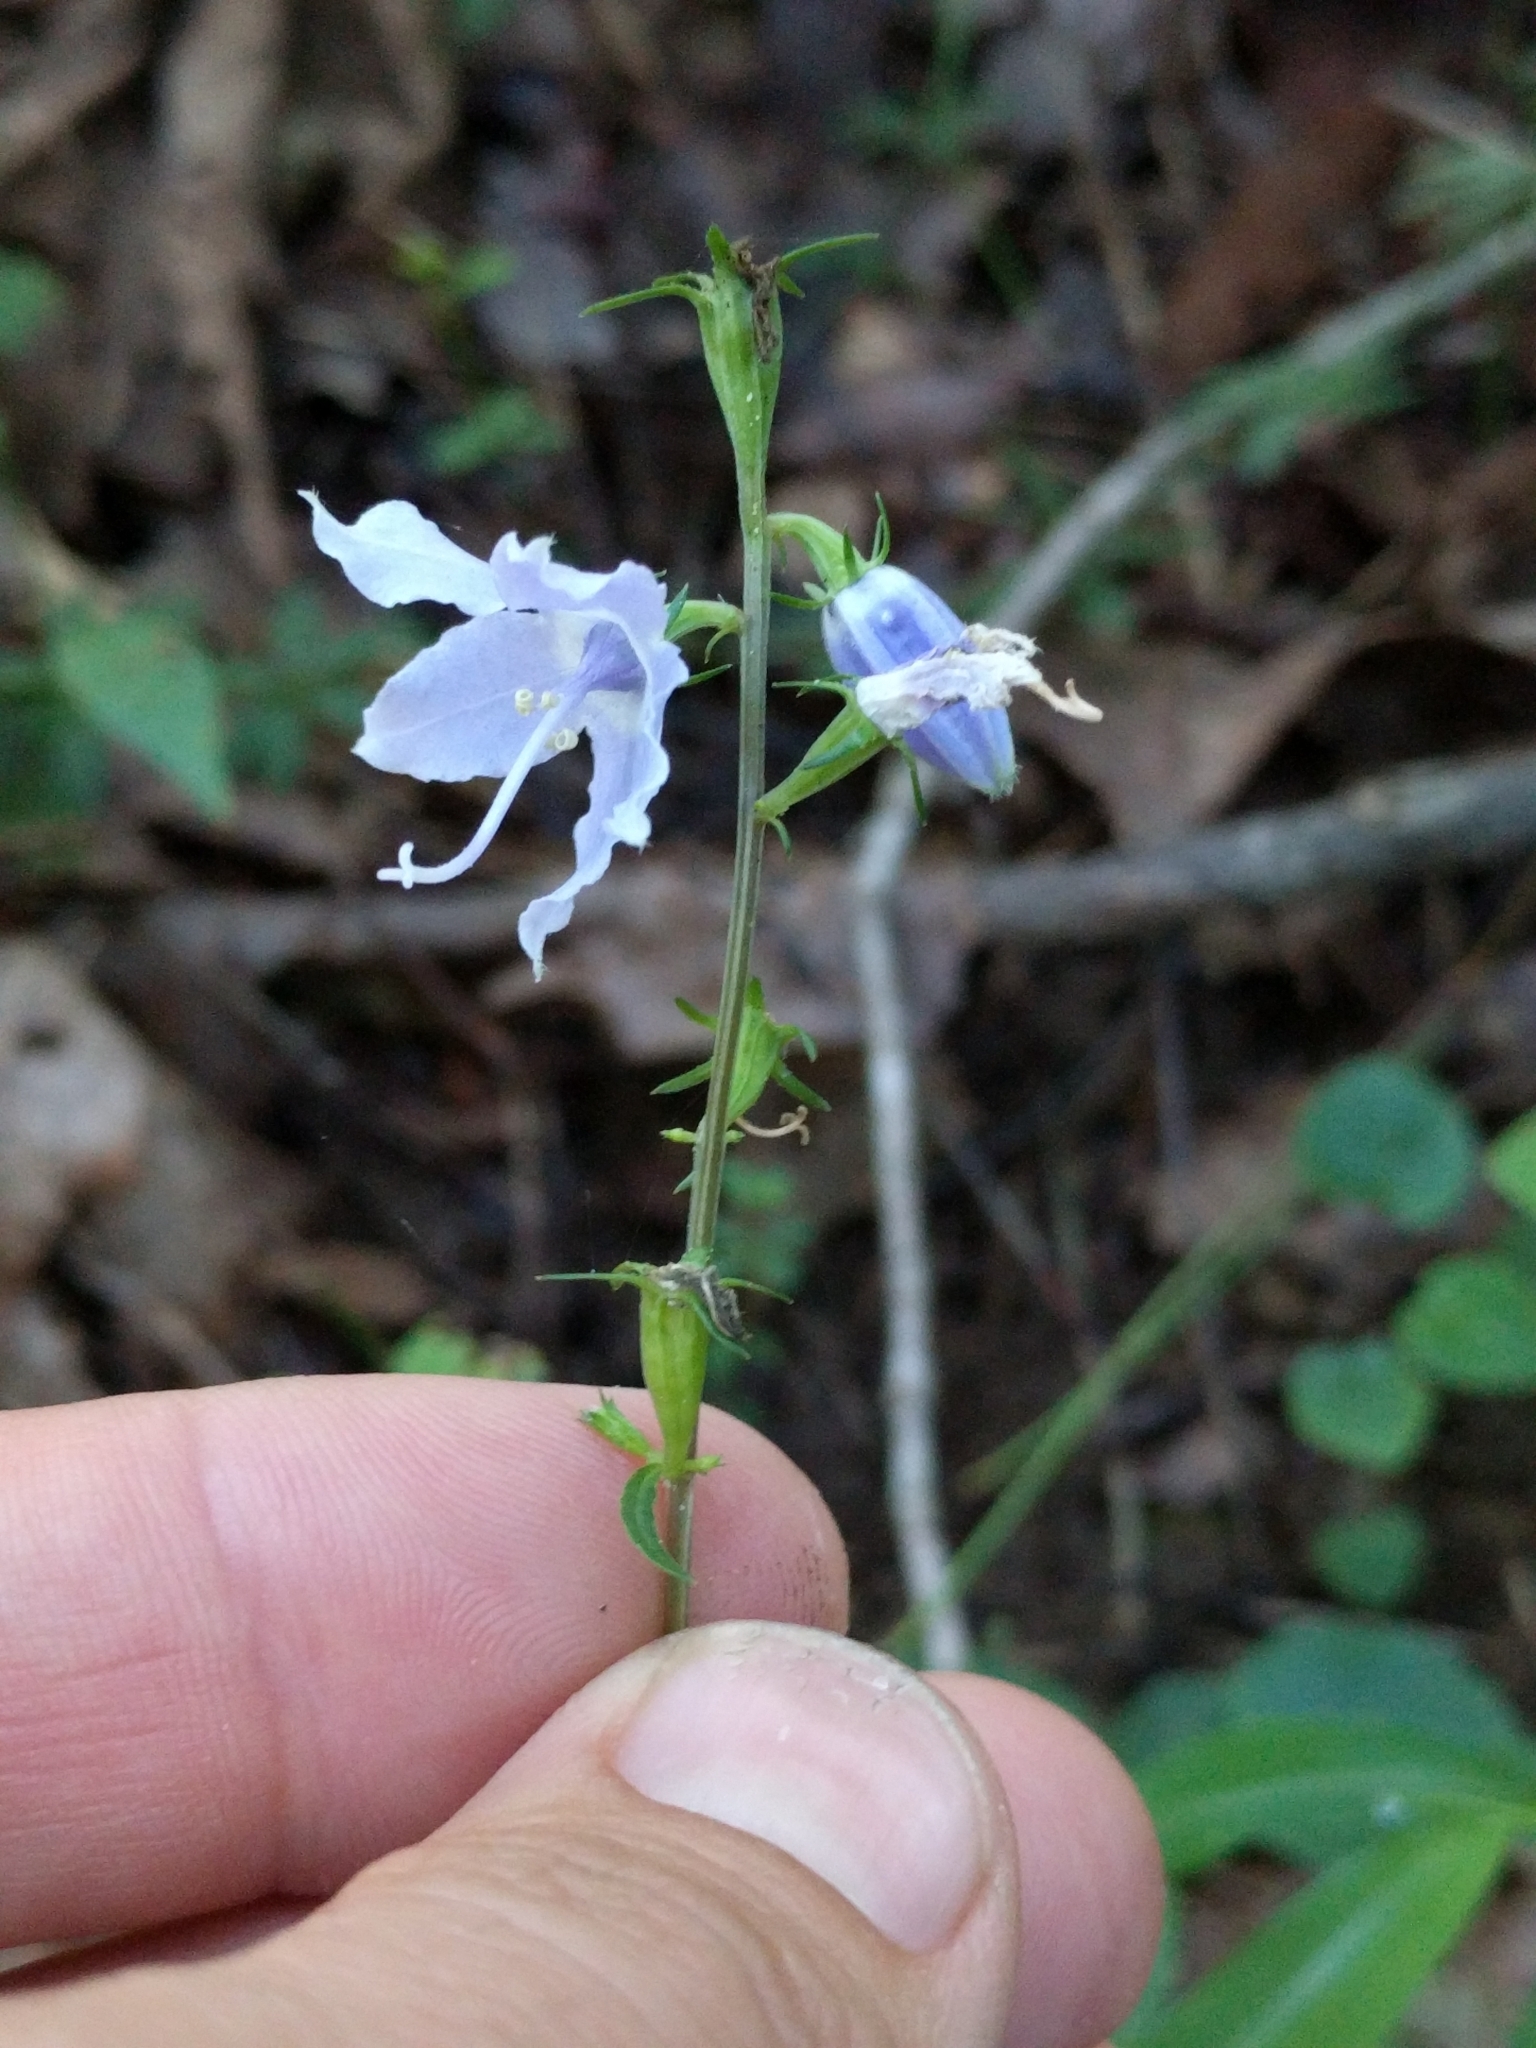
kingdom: Plantae
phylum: Tracheophyta
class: Magnoliopsida
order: Asterales
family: Campanulaceae
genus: Campanulastrum
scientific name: Campanulastrum americanum
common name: American bellflower
